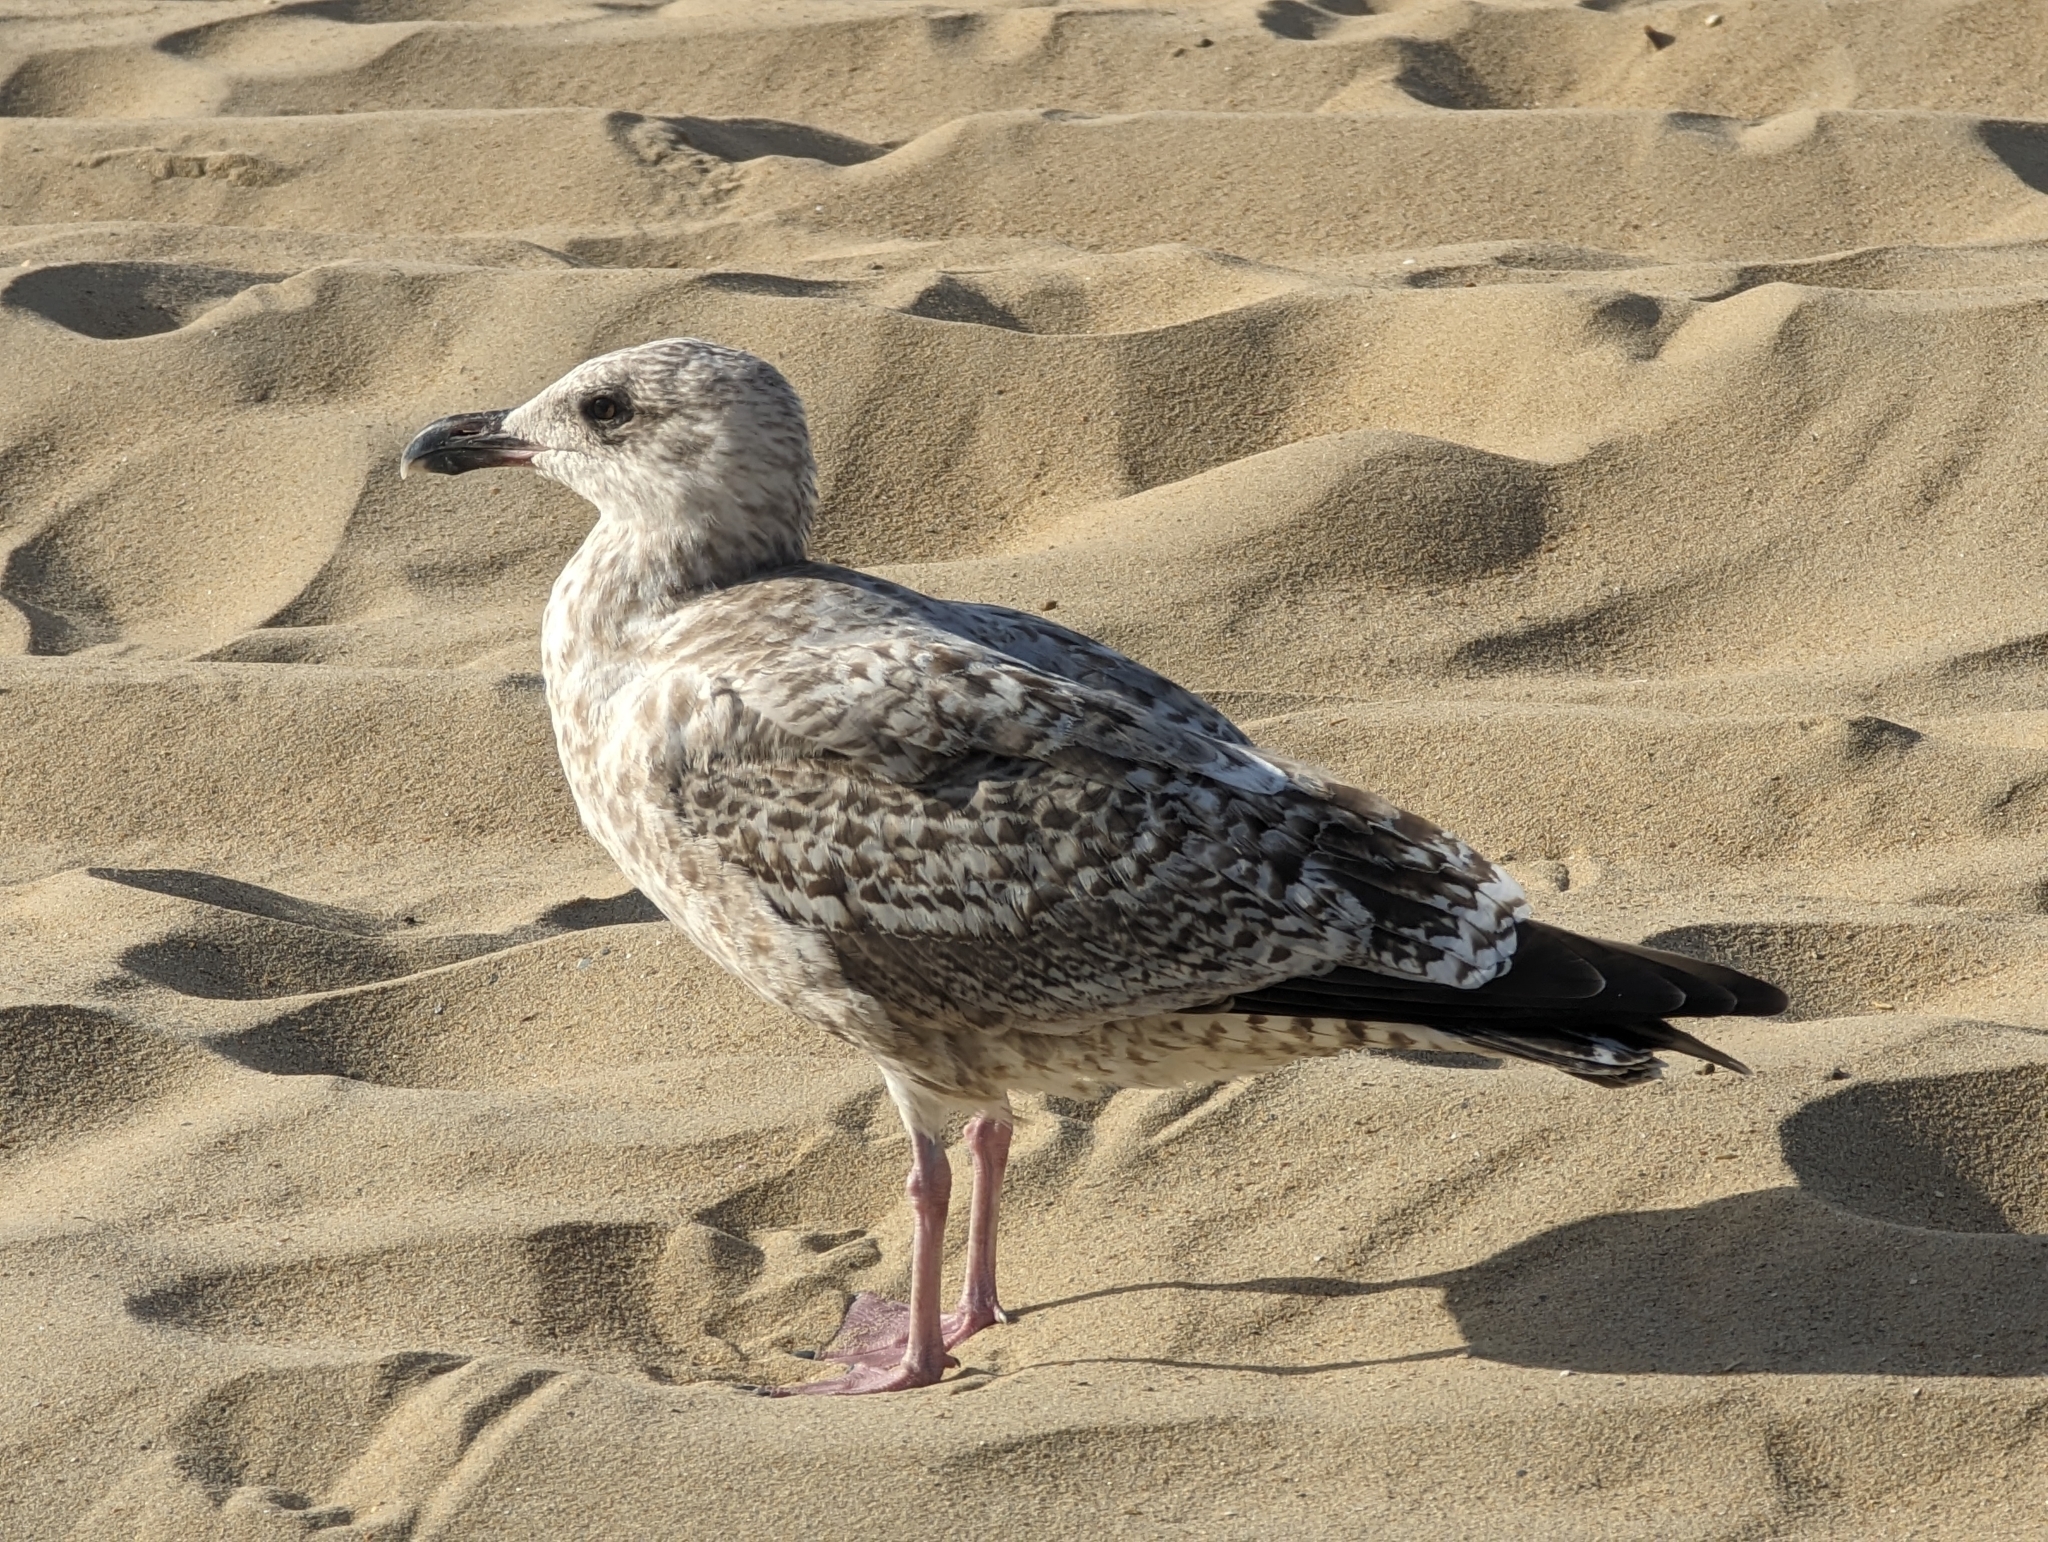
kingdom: Animalia
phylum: Chordata
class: Aves
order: Charadriiformes
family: Laridae
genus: Larus
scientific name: Larus argentatus
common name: Herring gull
